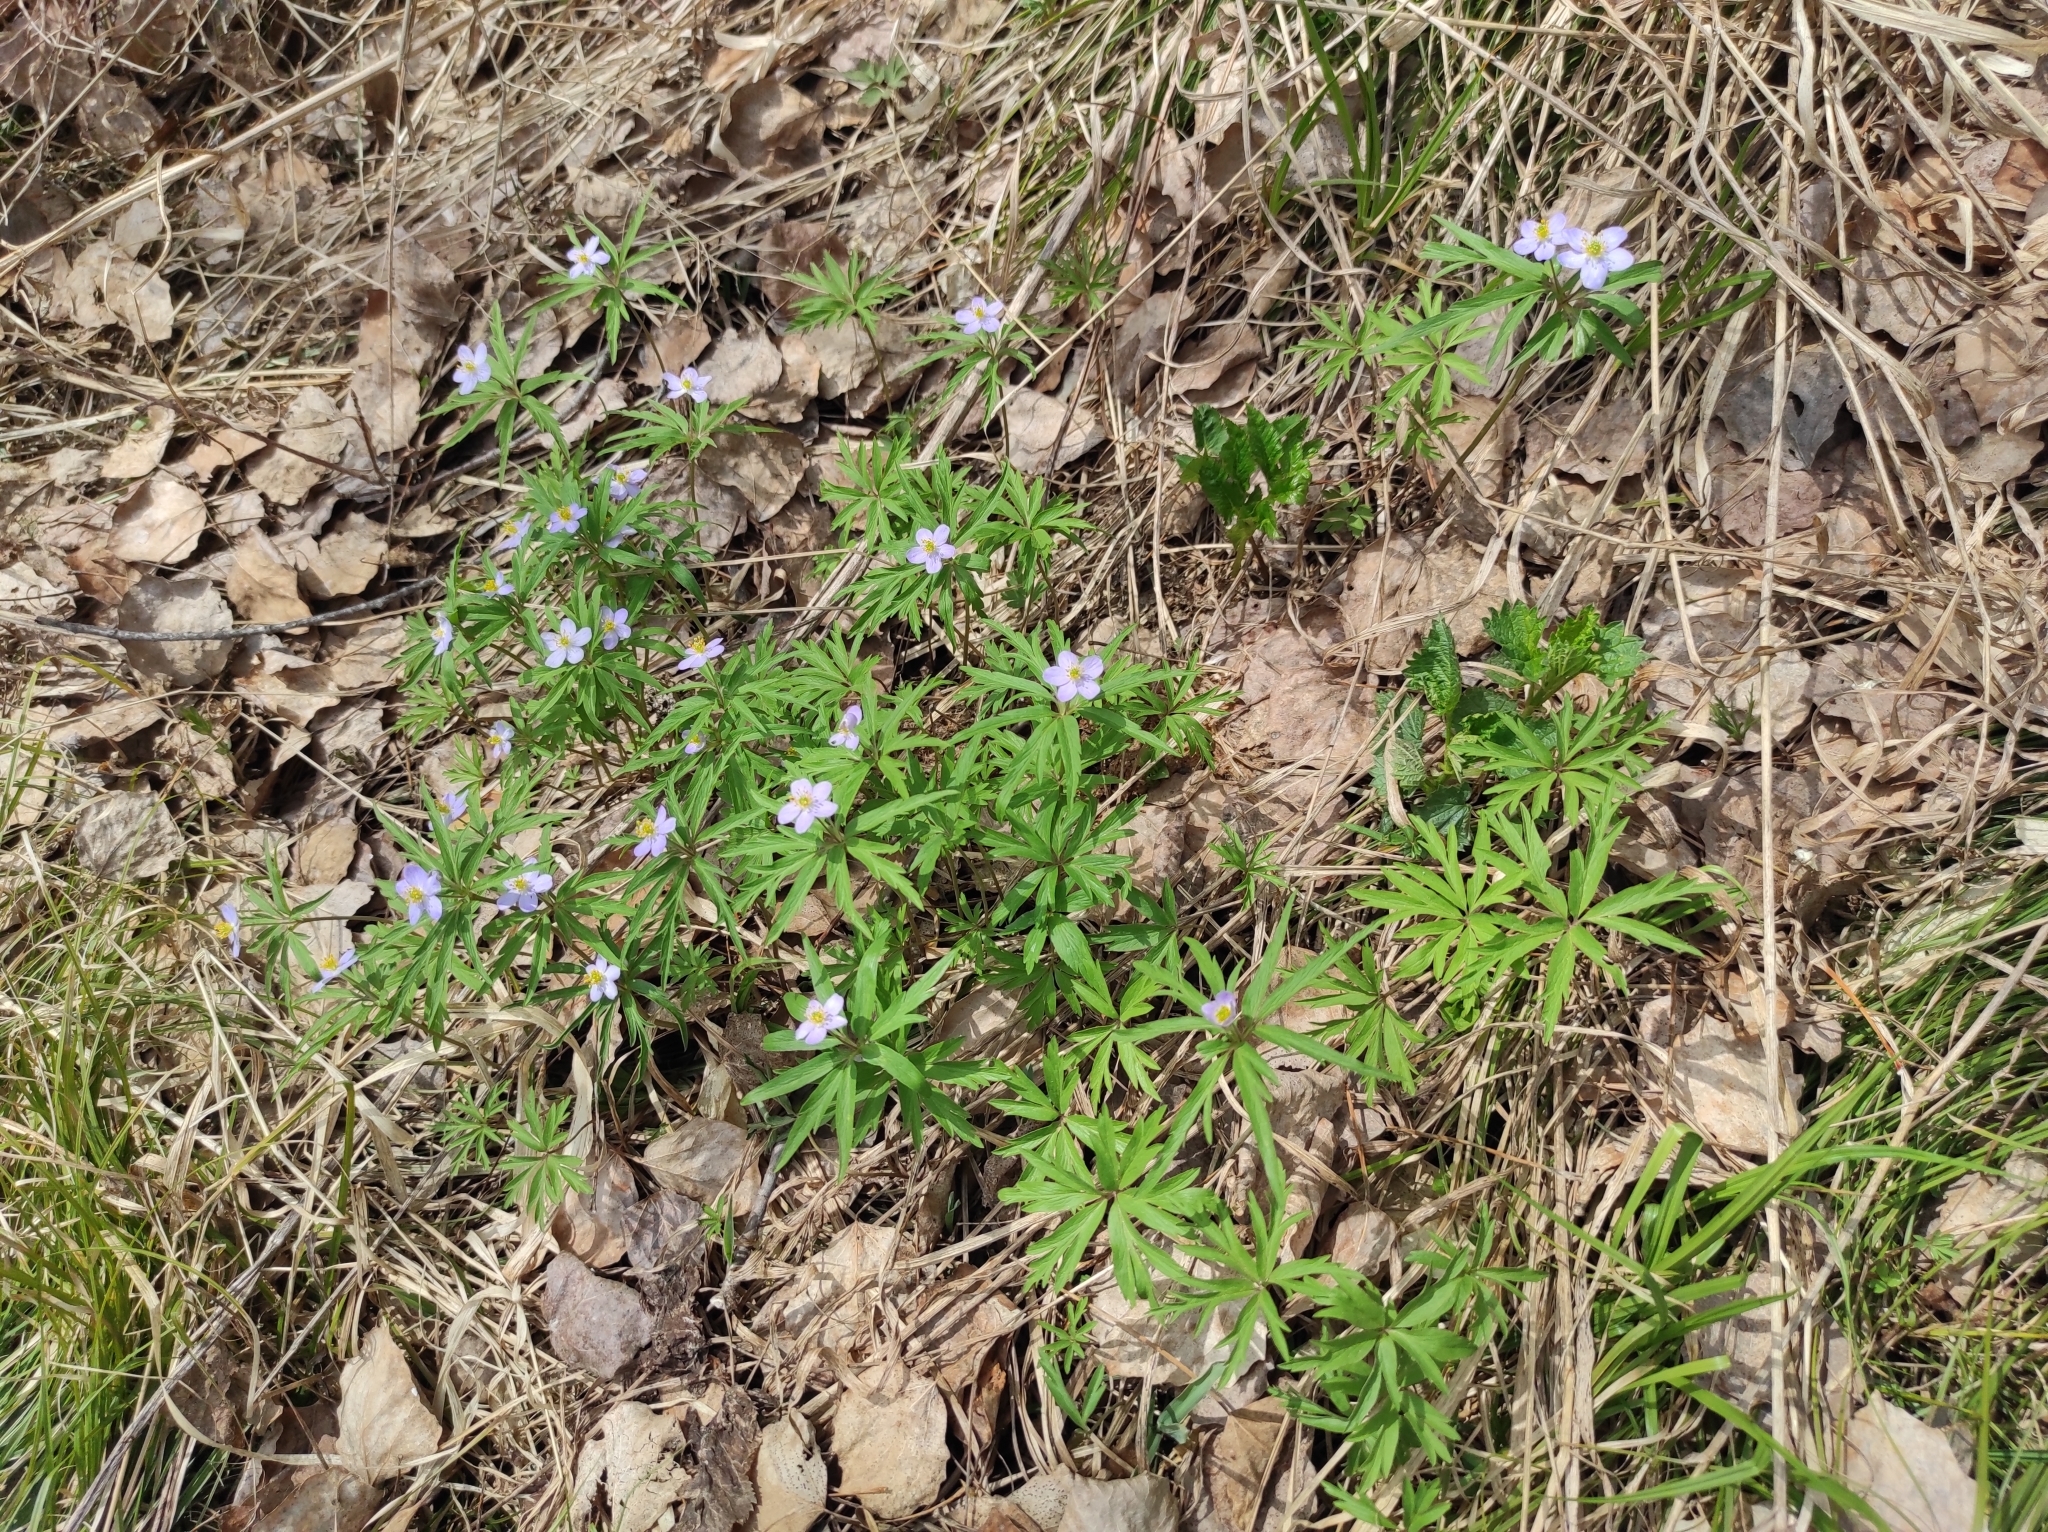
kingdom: Plantae
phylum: Tracheophyta
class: Magnoliopsida
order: Ranunculales
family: Ranunculaceae
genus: Anemone
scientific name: Anemone caerulea
